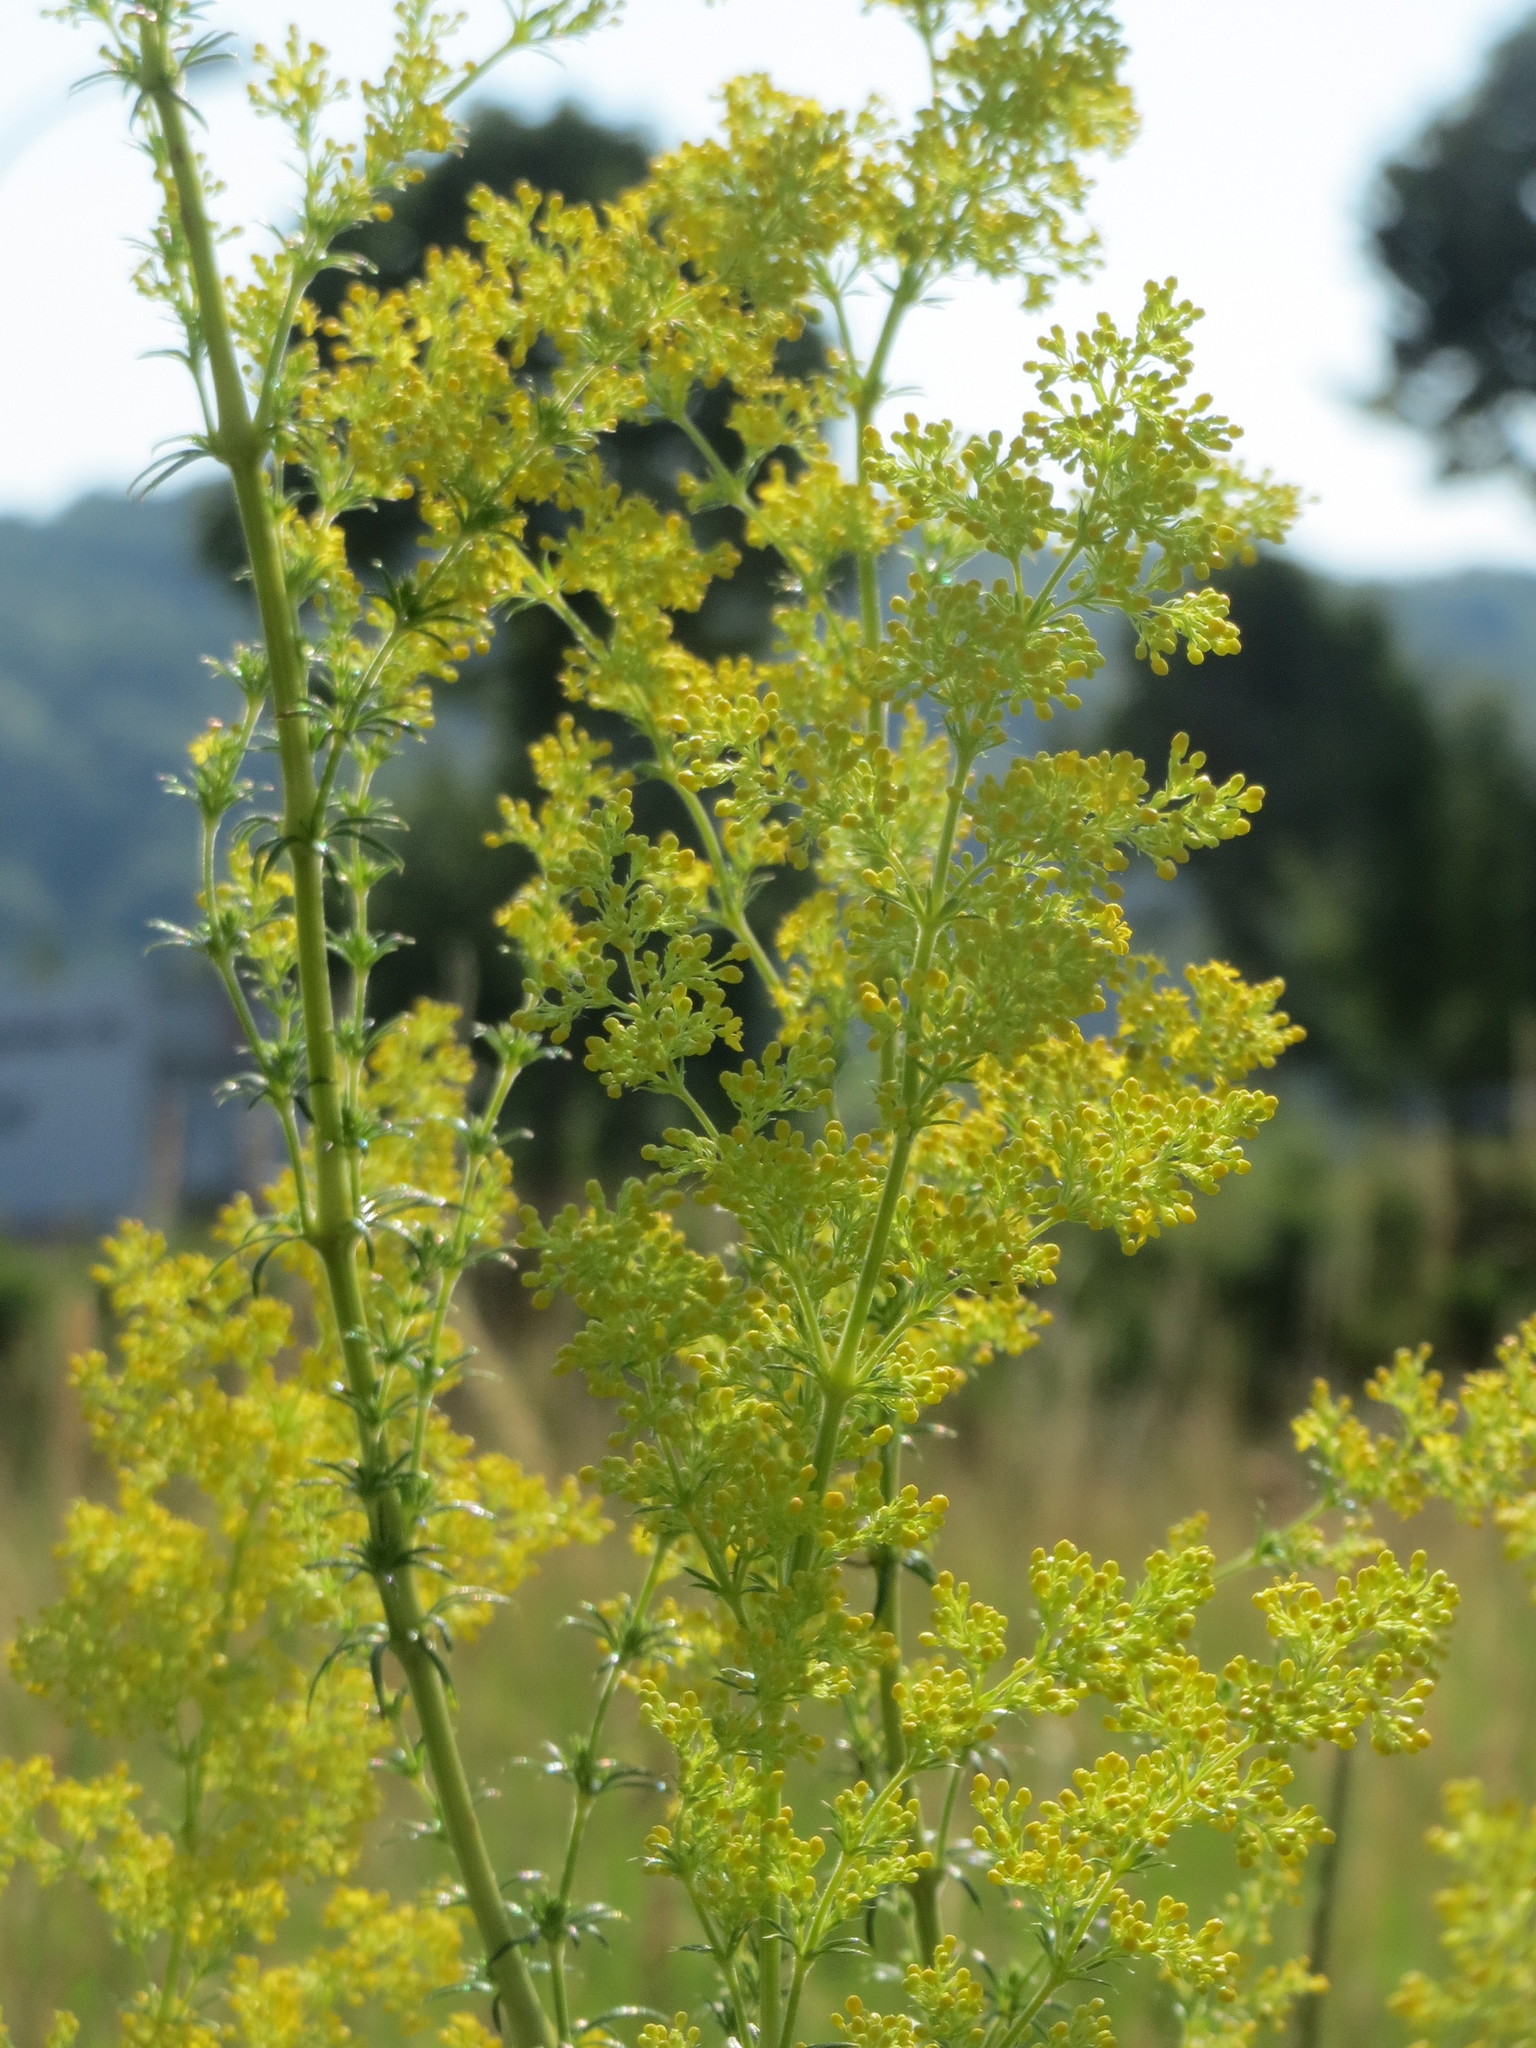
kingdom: Plantae
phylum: Tracheophyta
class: Magnoliopsida
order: Gentianales
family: Rubiaceae
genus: Galium
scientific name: Galium verum
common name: Lady's bedstraw
